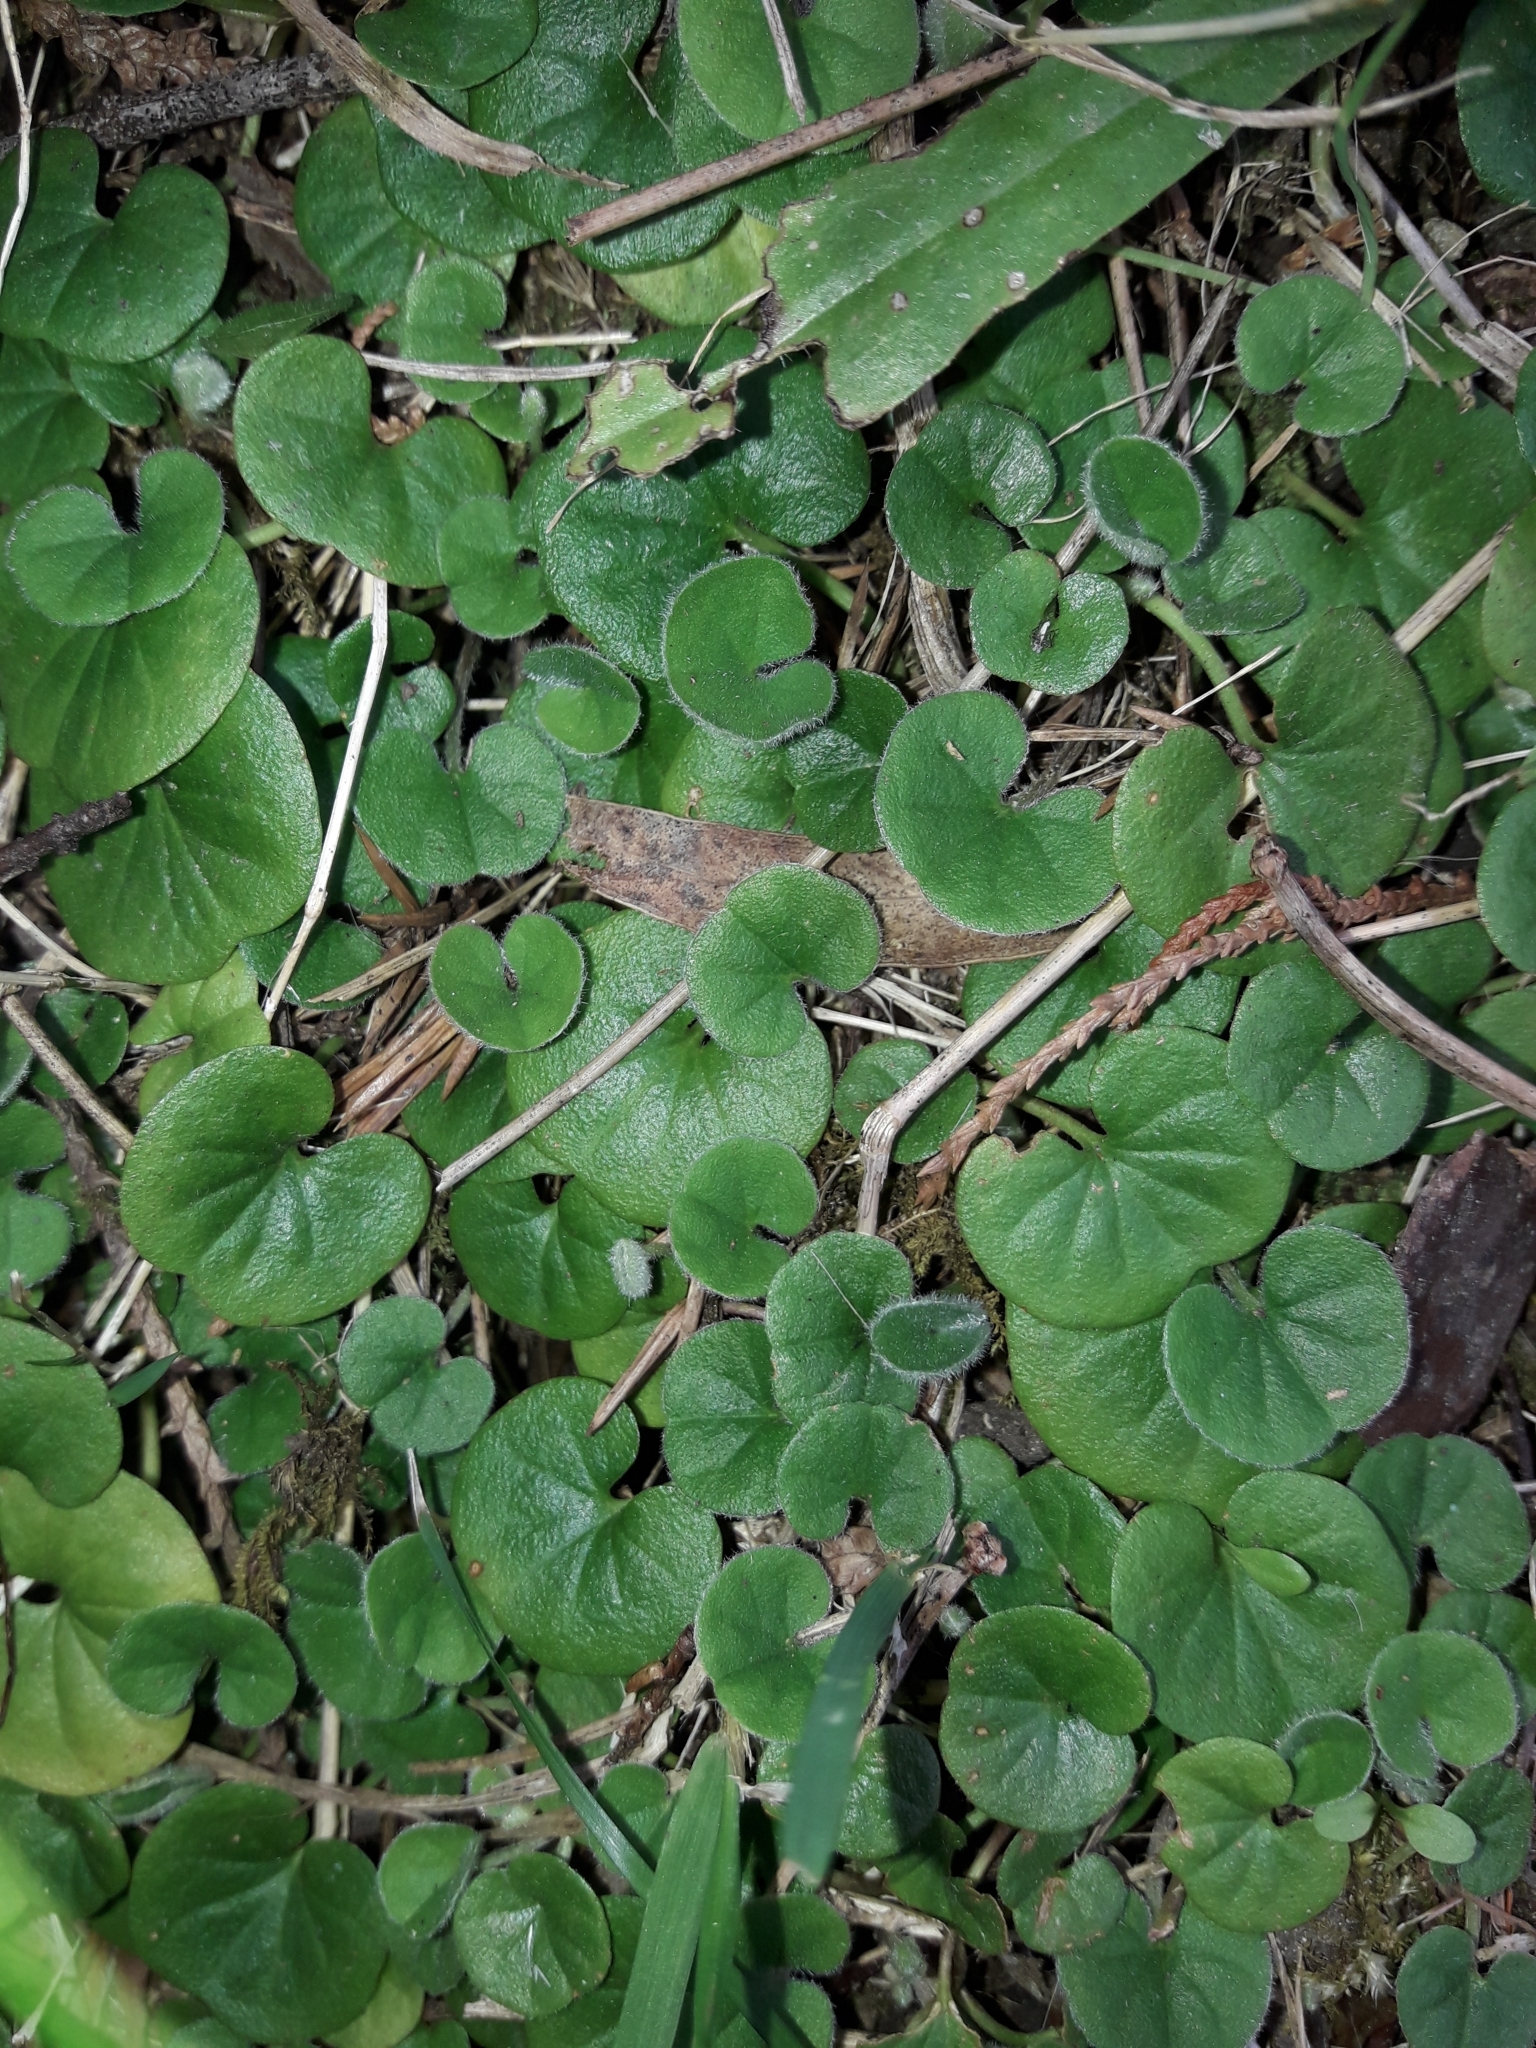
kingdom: Plantae
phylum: Tracheophyta
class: Magnoliopsida
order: Solanales
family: Convolvulaceae
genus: Dichondra
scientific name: Dichondra repens
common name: Kidneyweed
